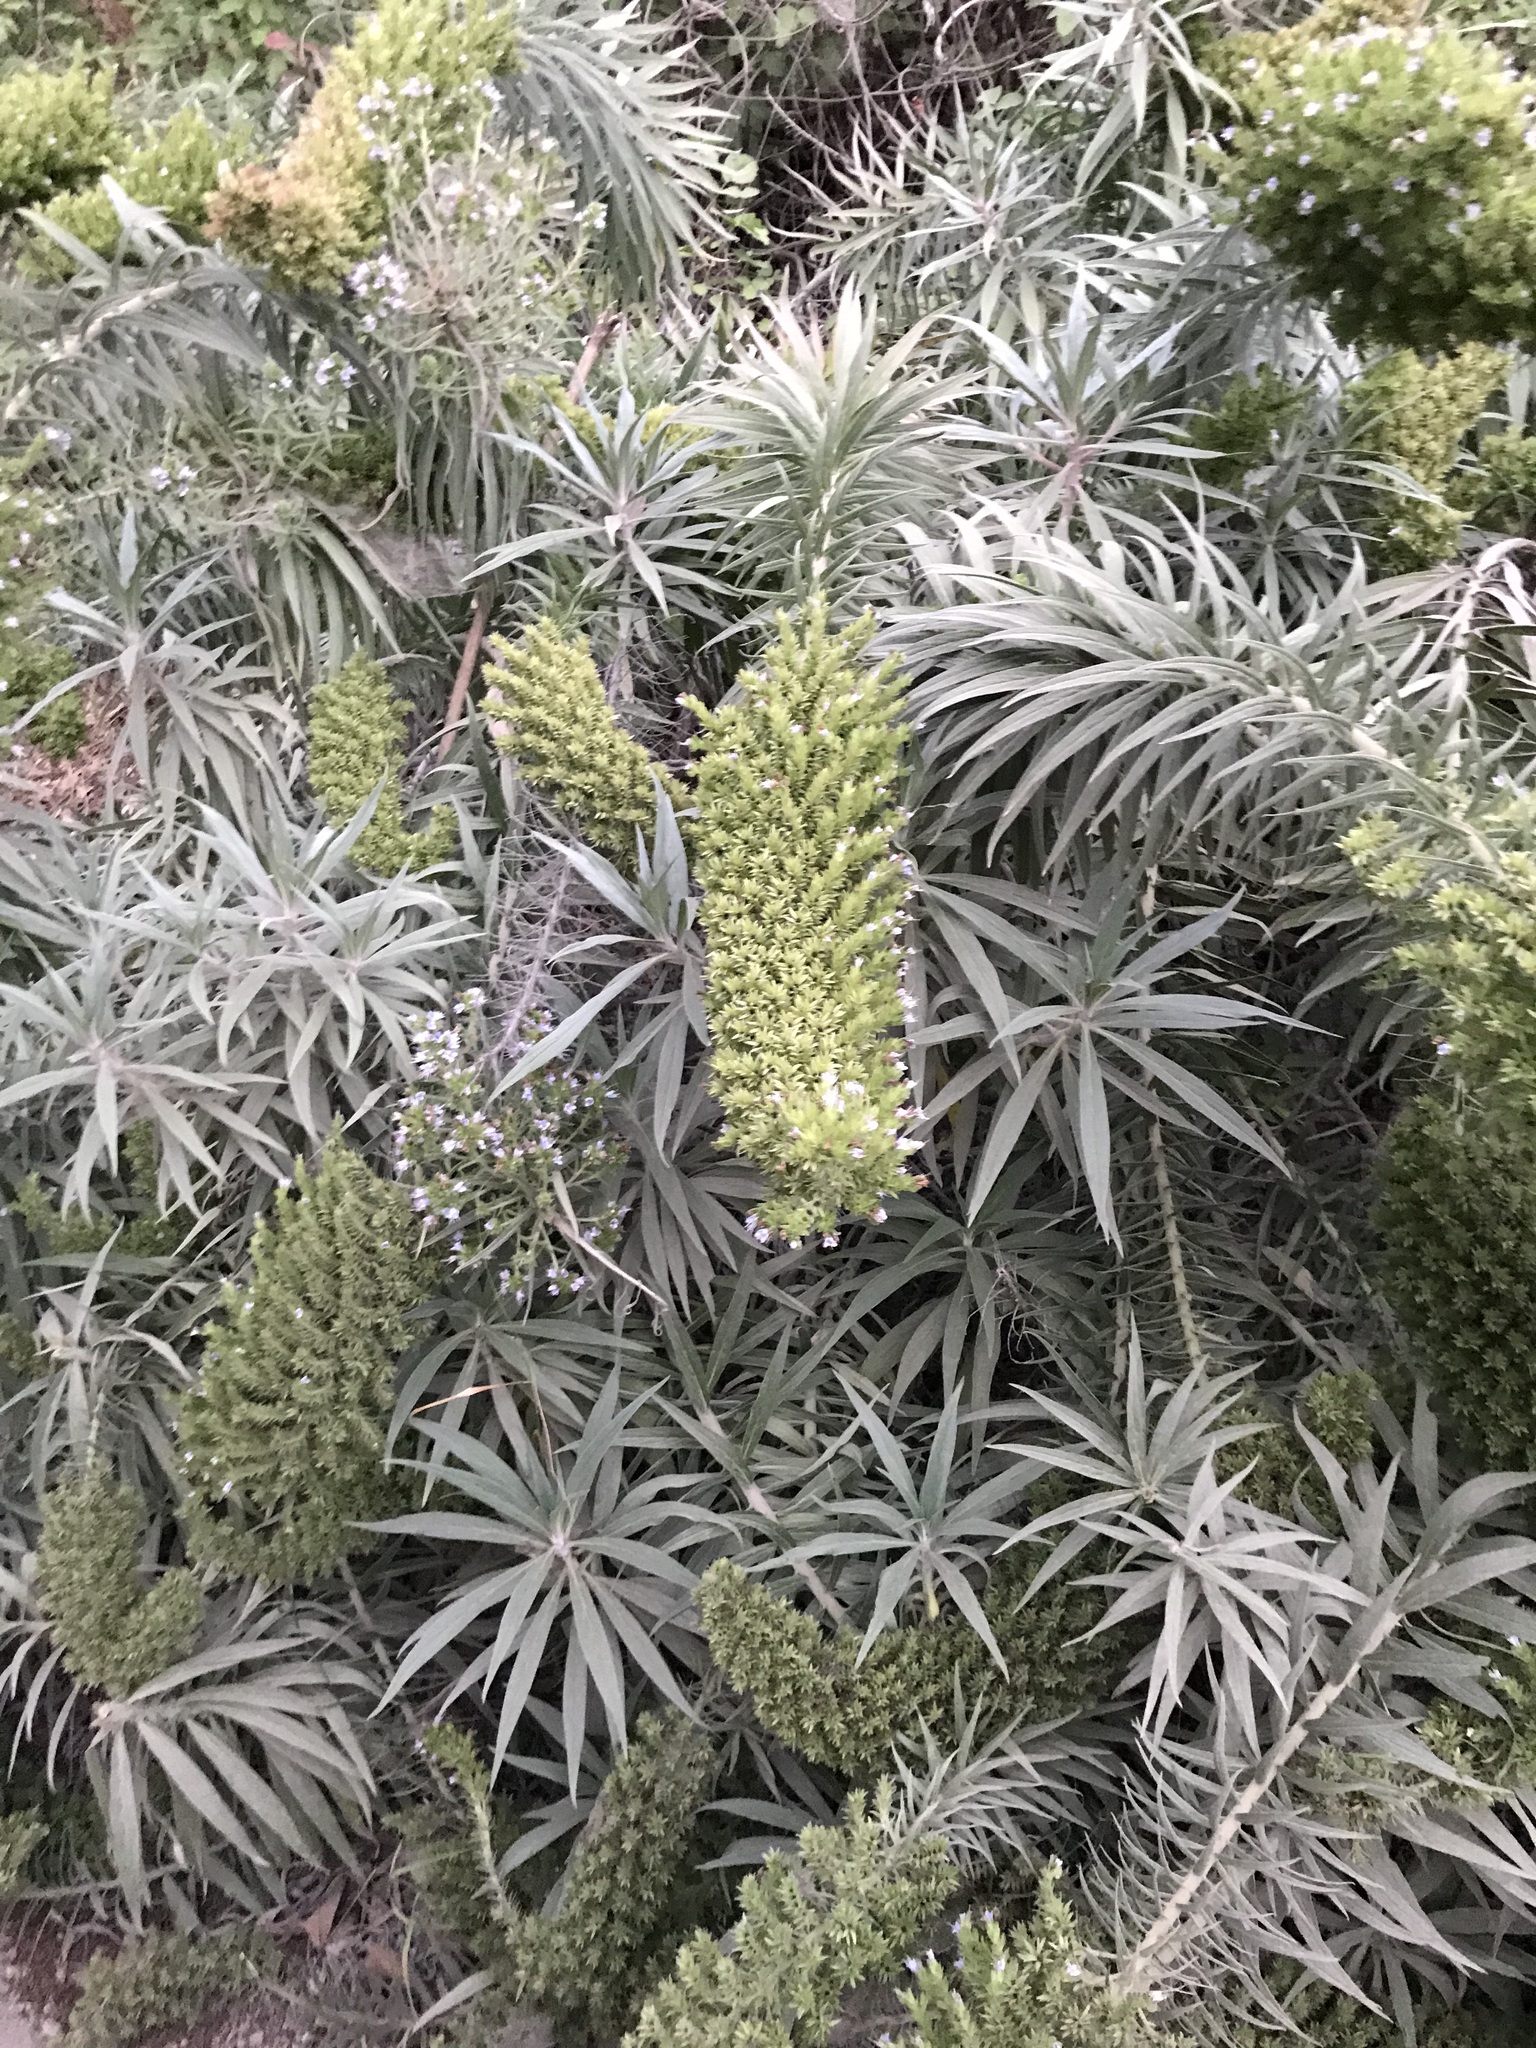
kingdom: Plantae
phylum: Tracheophyta
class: Magnoliopsida
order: Boraginales
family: Boraginaceae
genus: Echium
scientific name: Echium candicans
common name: Pride of madeira
